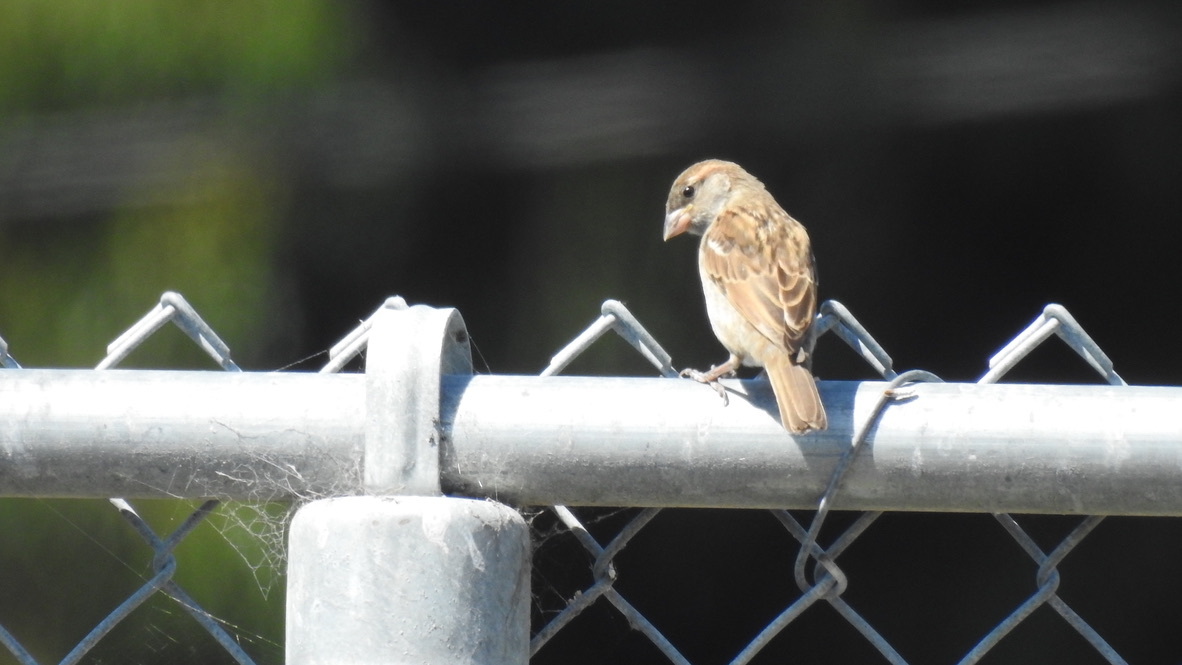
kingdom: Animalia
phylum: Chordata
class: Aves
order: Passeriformes
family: Passeridae
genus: Passer
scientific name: Passer domesticus
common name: House sparrow
